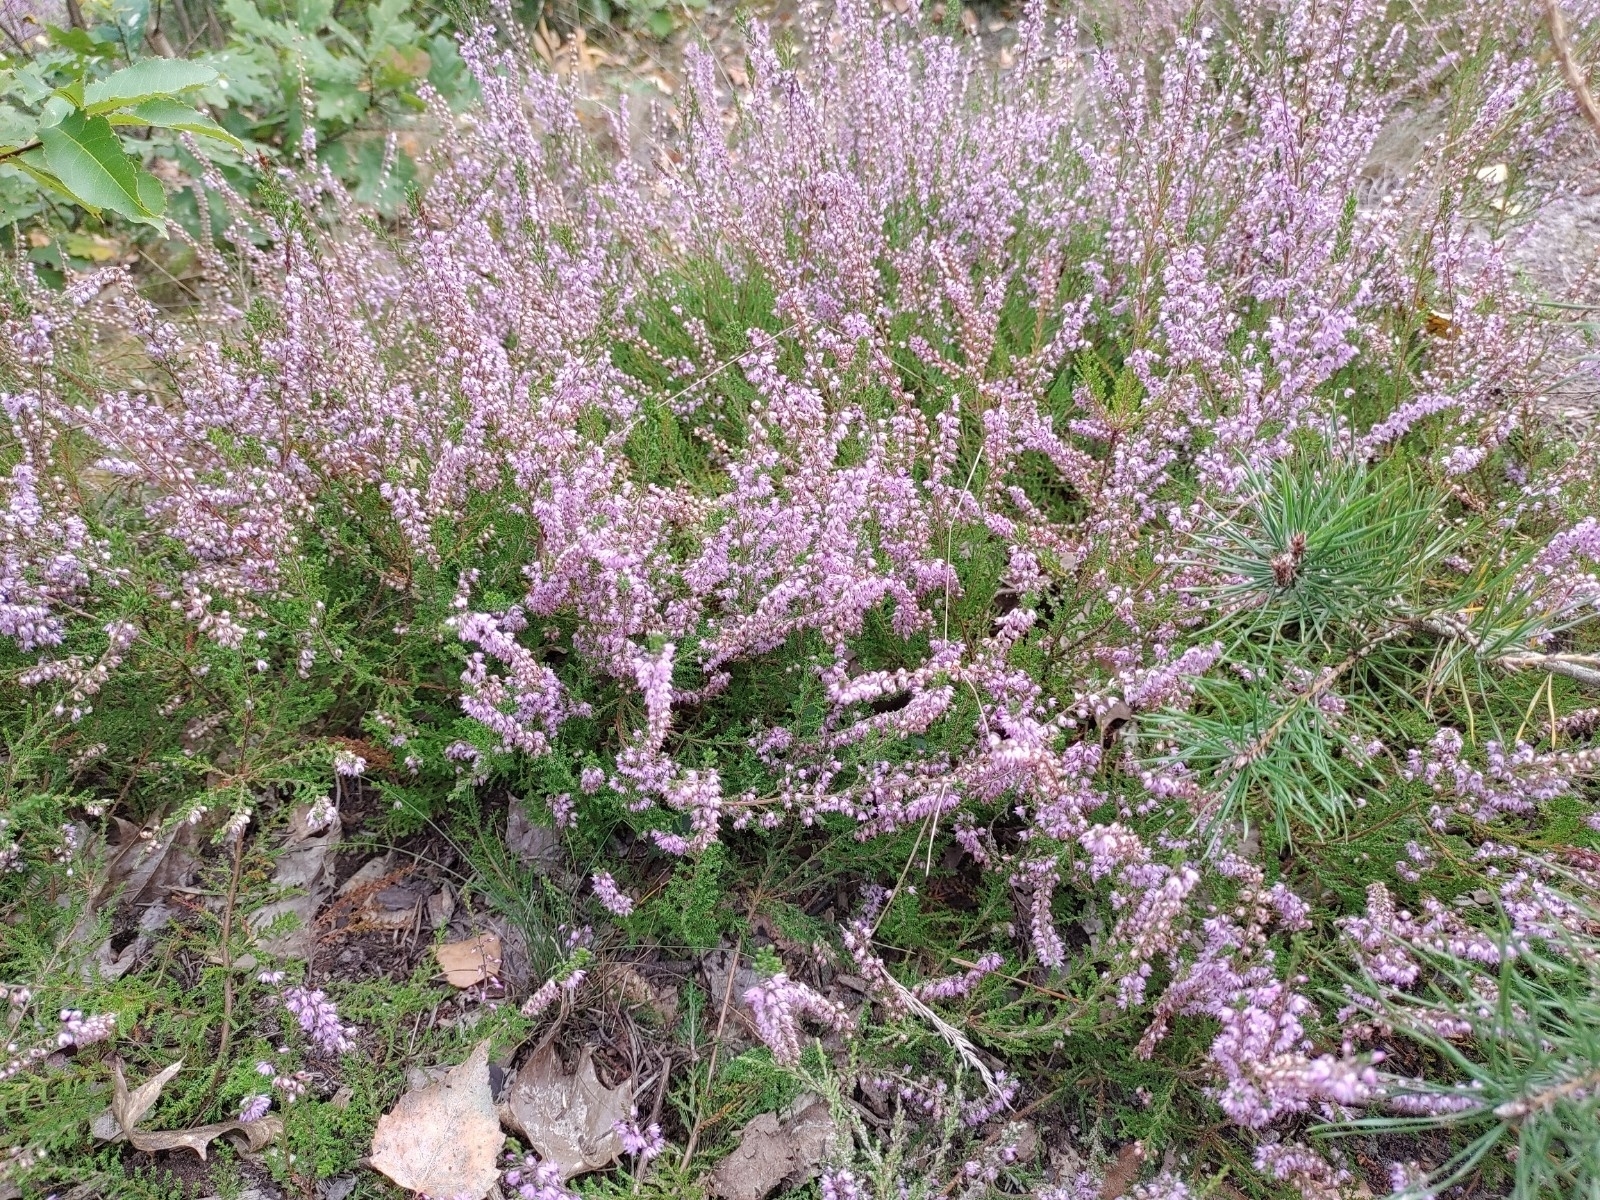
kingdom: Plantae
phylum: Tracheophyta
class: Magnoliopsida
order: Ericales
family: Ericaceae
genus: Calluna
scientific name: Calluna vulgaris
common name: Heather
